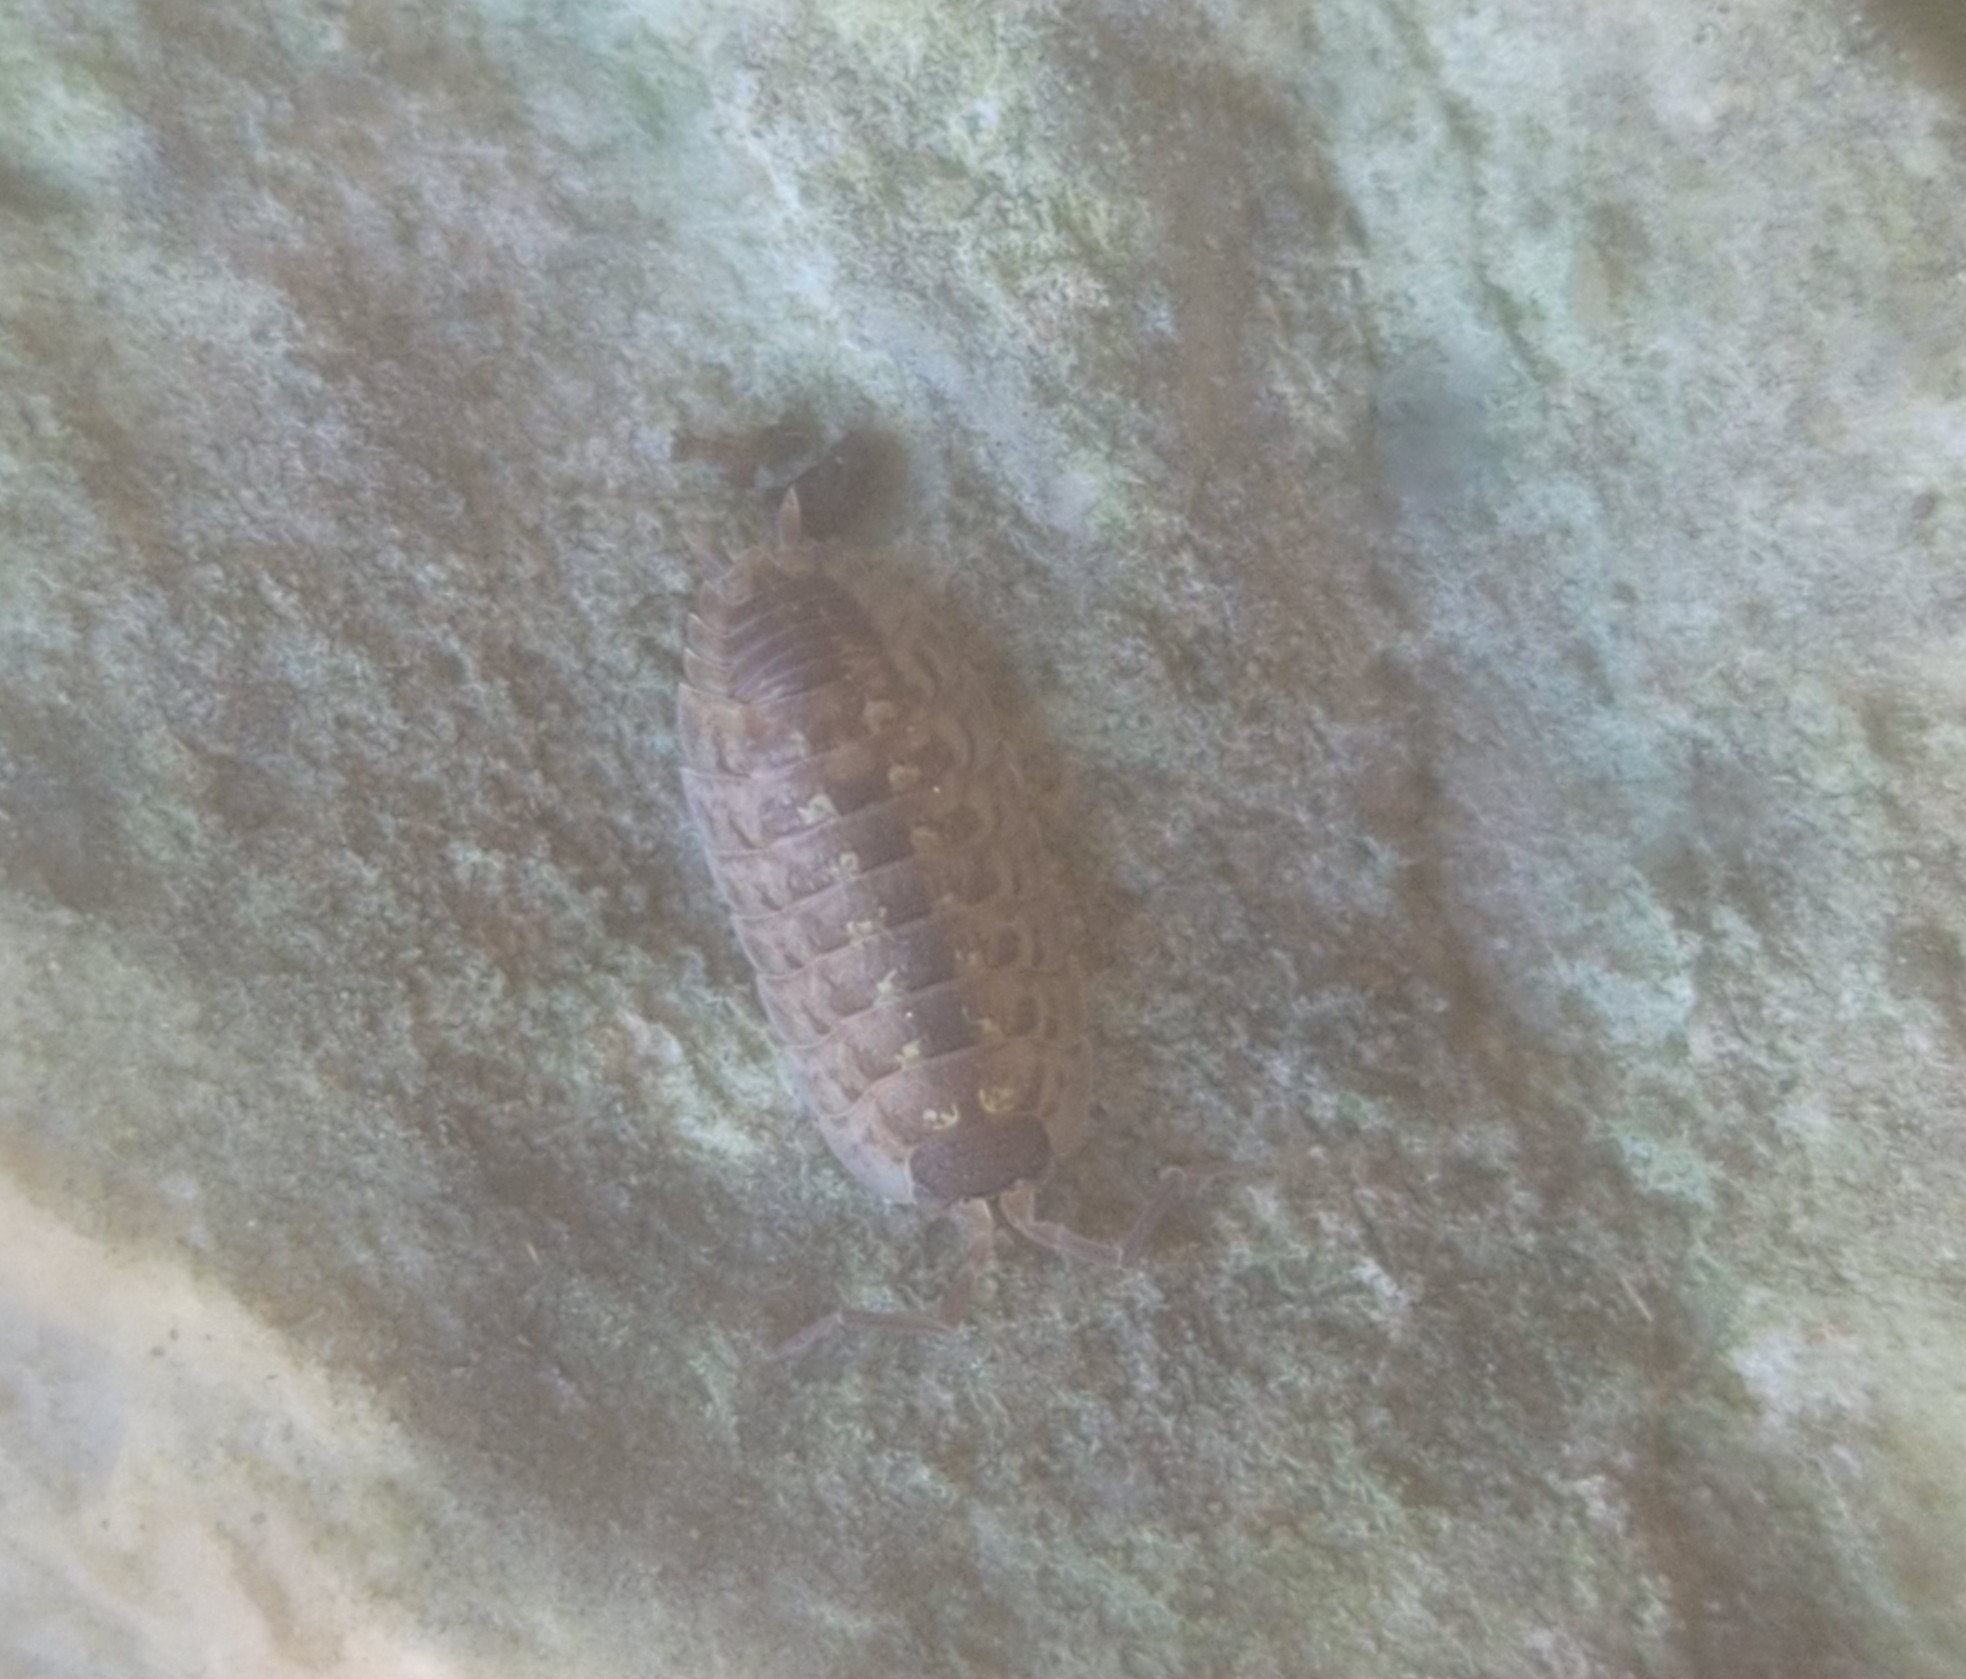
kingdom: Animalia
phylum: Arthropoda
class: Malacostraca
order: Isopoda
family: Porcellionidae
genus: Porcellio
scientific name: Porcellio spinicornis
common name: Painted woodlouse
